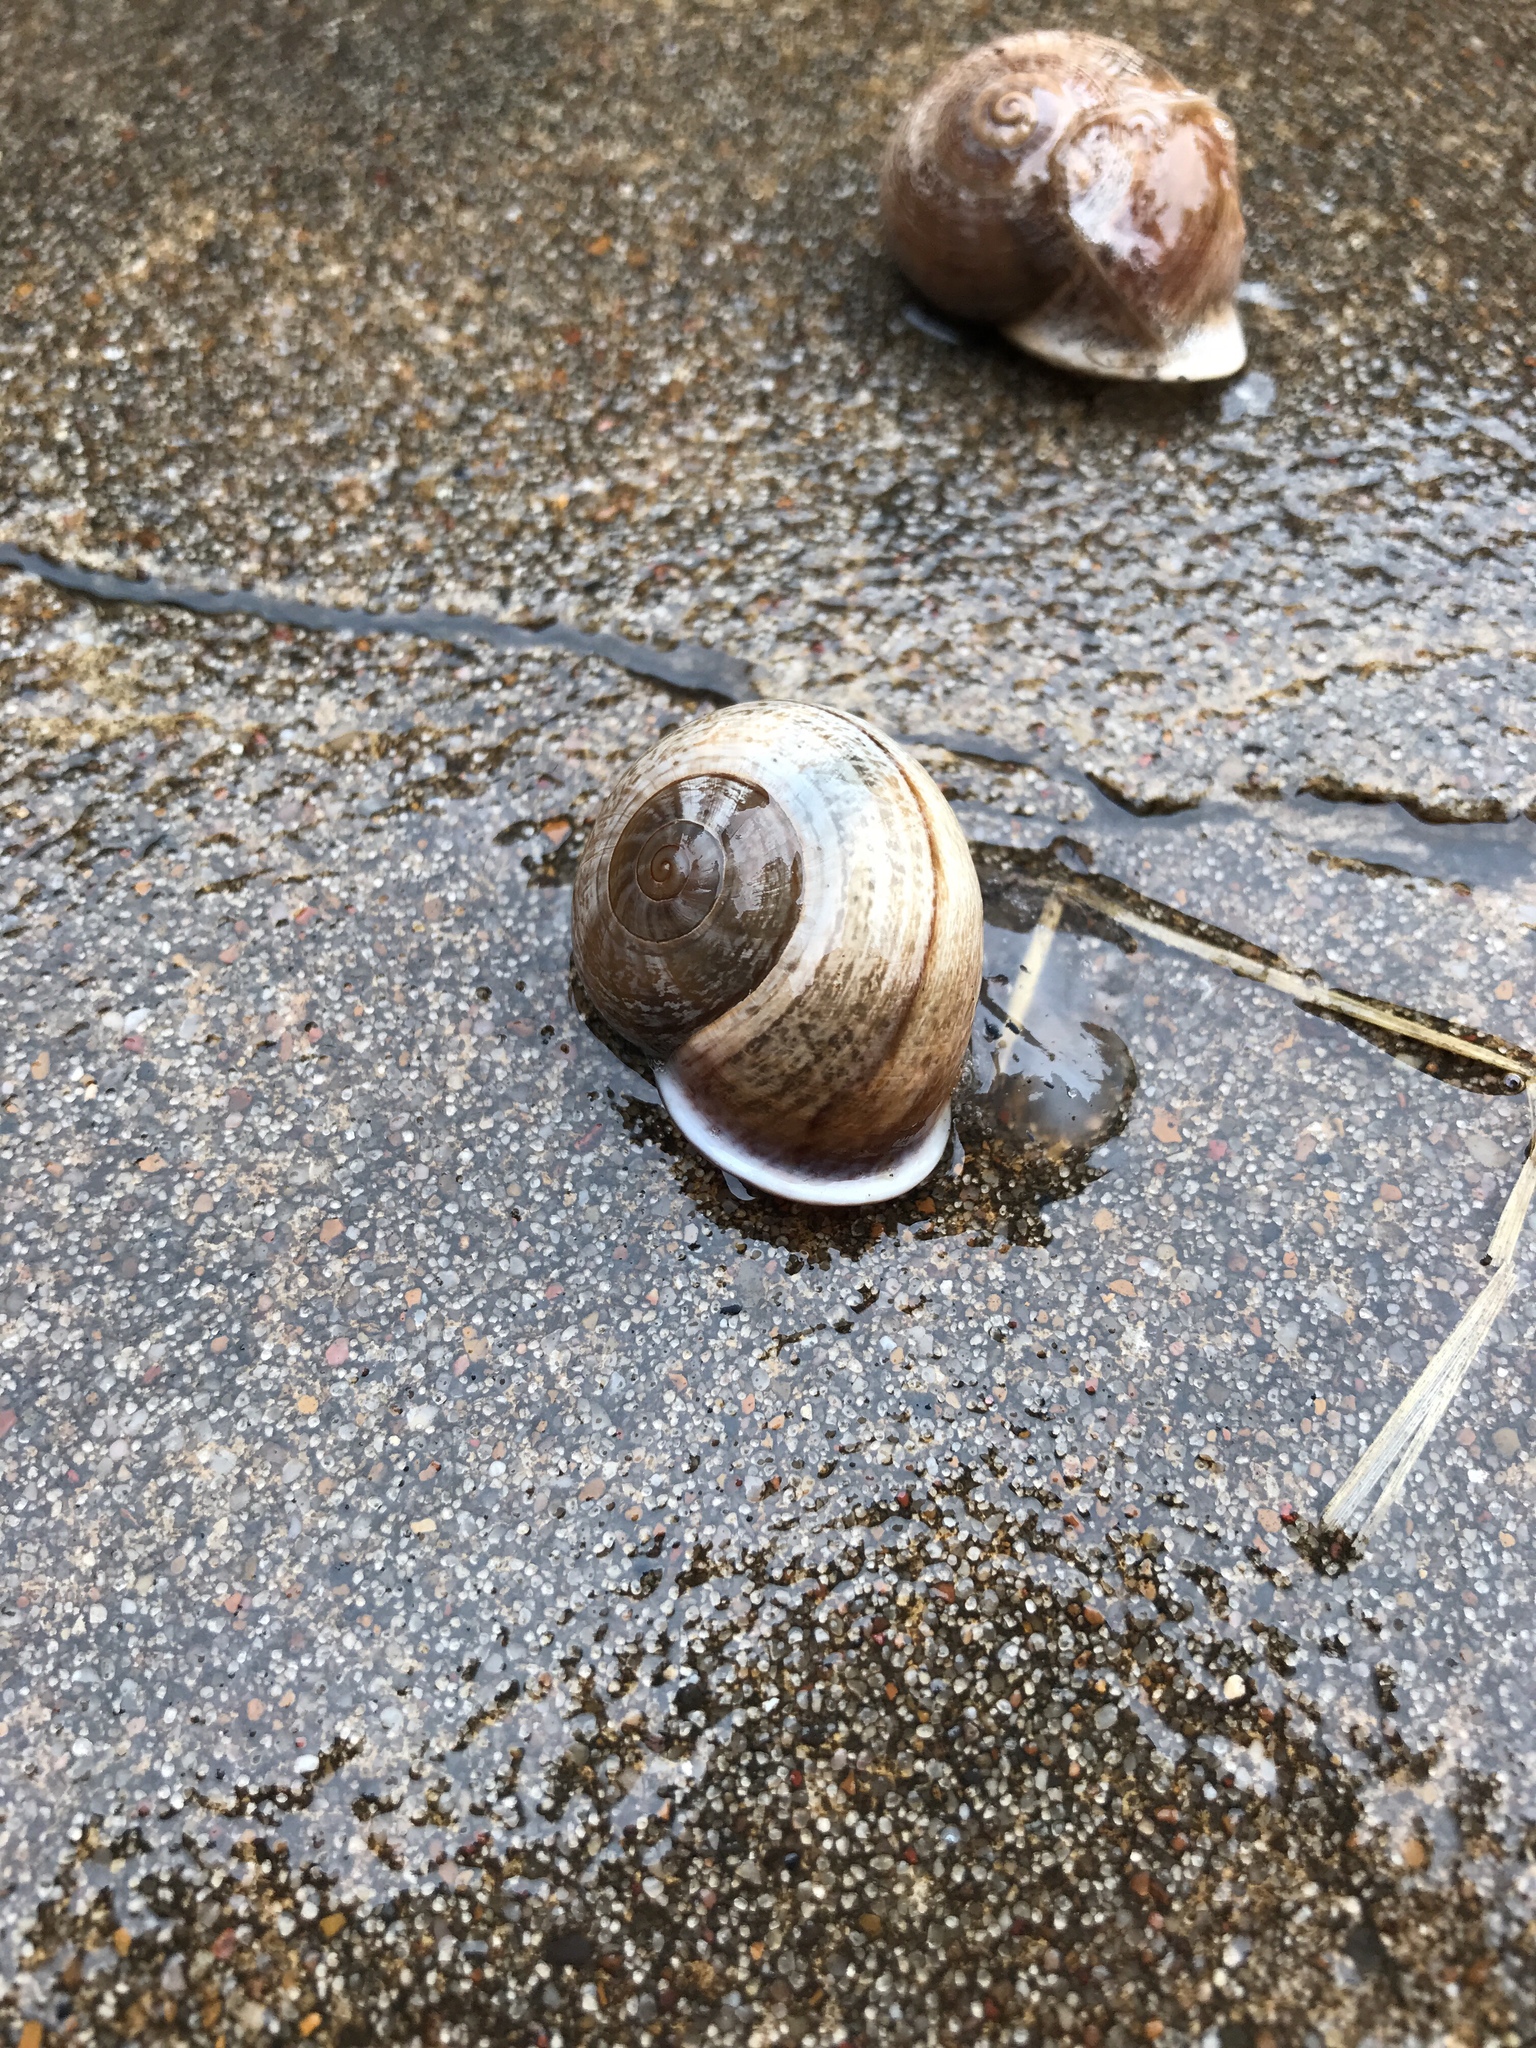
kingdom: Animalia
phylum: Mollusca
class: Gastropoda
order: Stylommatophora
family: Helicidae
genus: Otala
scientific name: Otala lactea
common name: Milk snail
